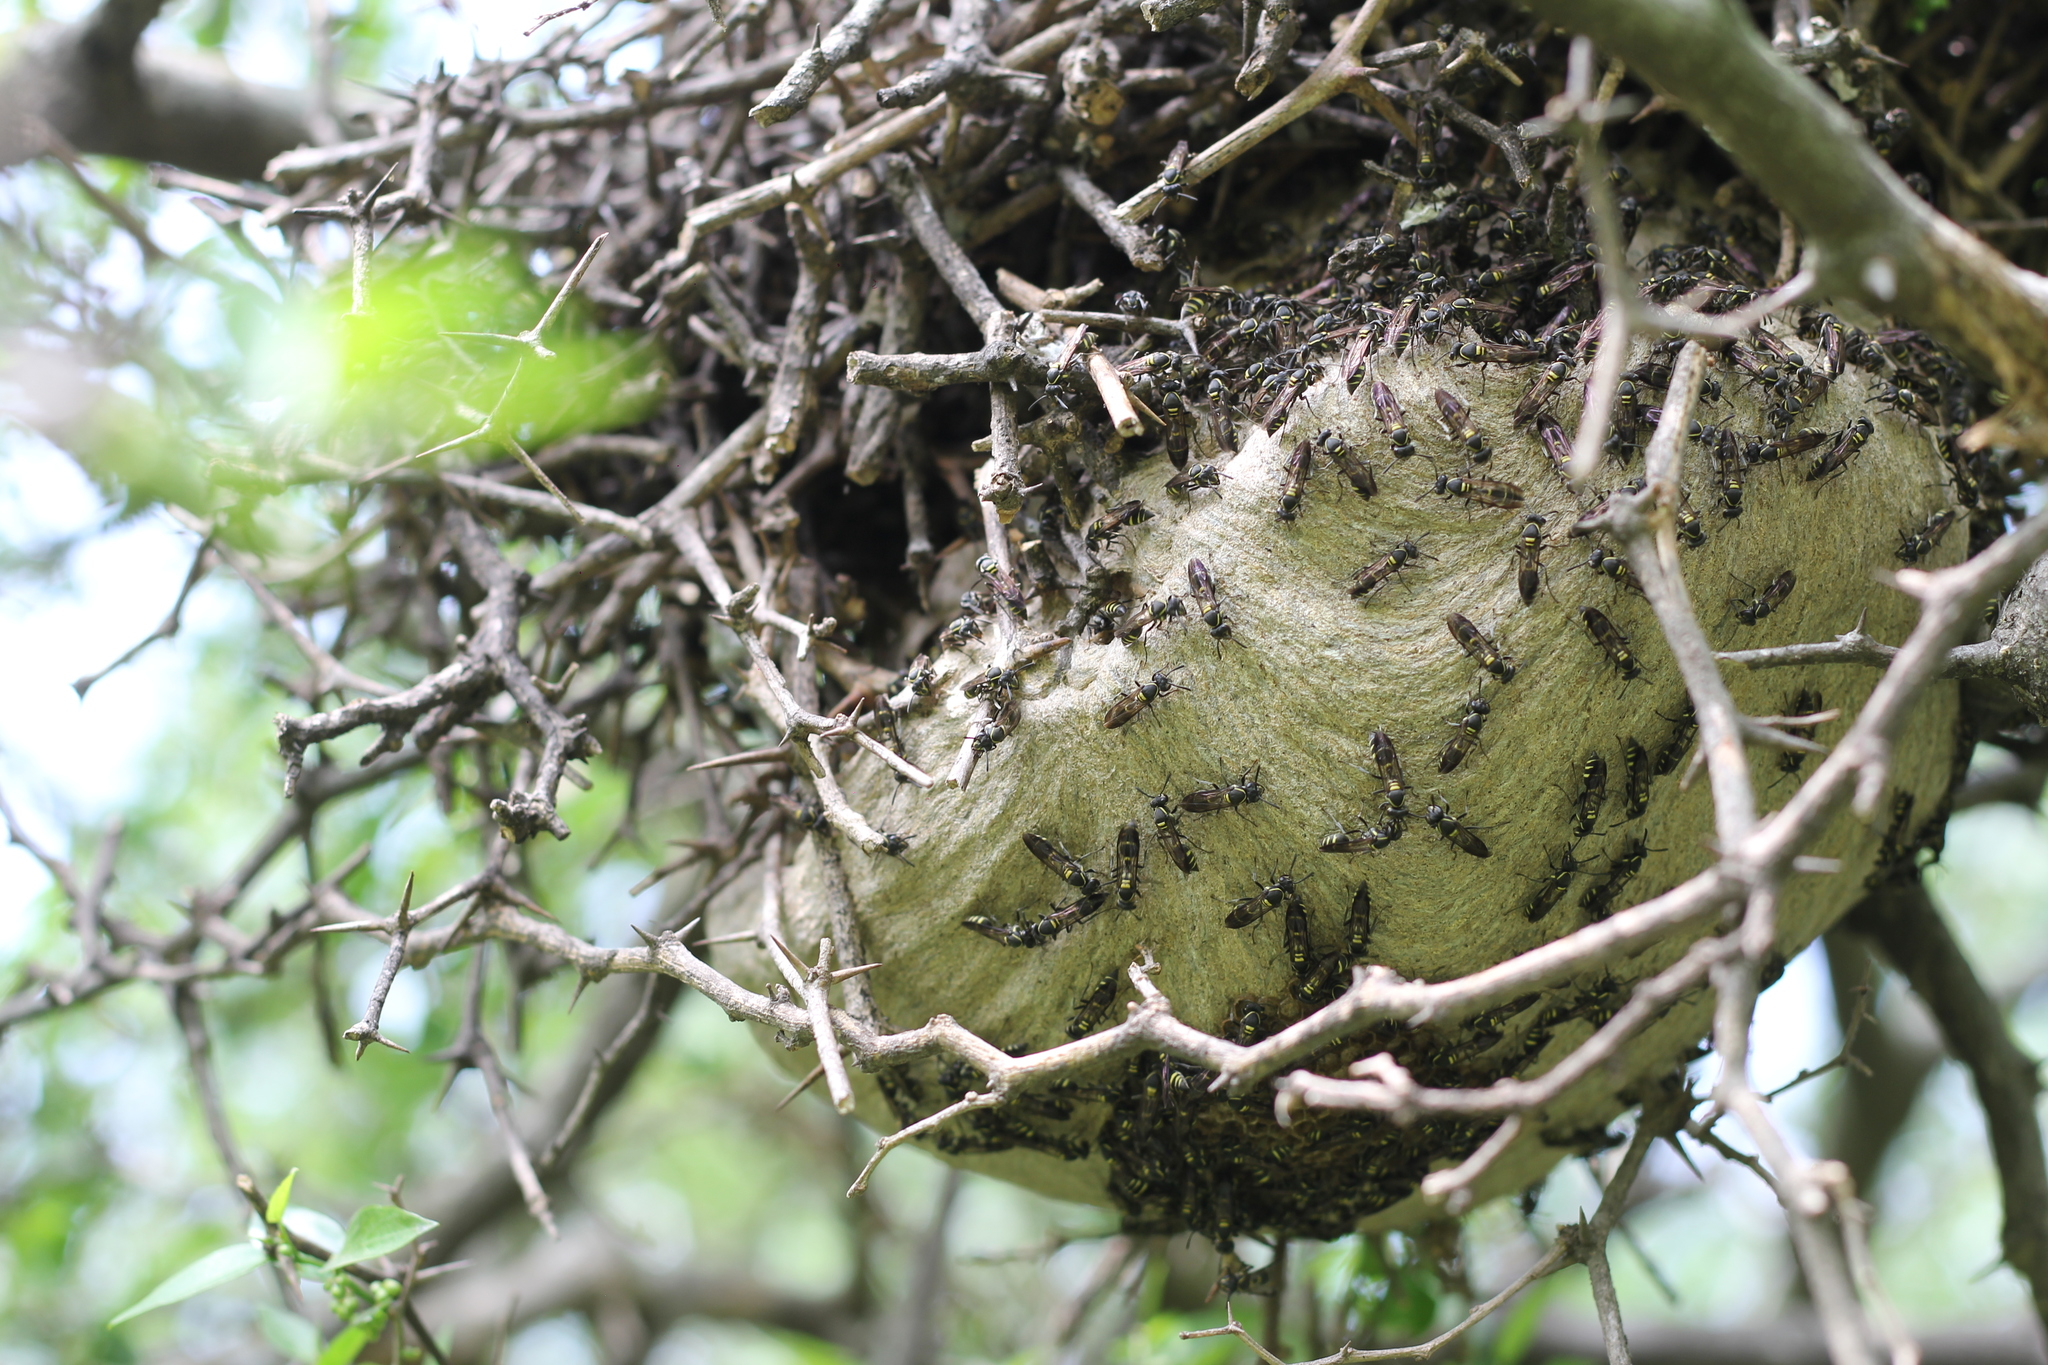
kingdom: Animalia
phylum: Arthropoda
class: Insecta
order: Hymenoptera
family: Eumenidae
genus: Polybia
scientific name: Polybia occidentalis
